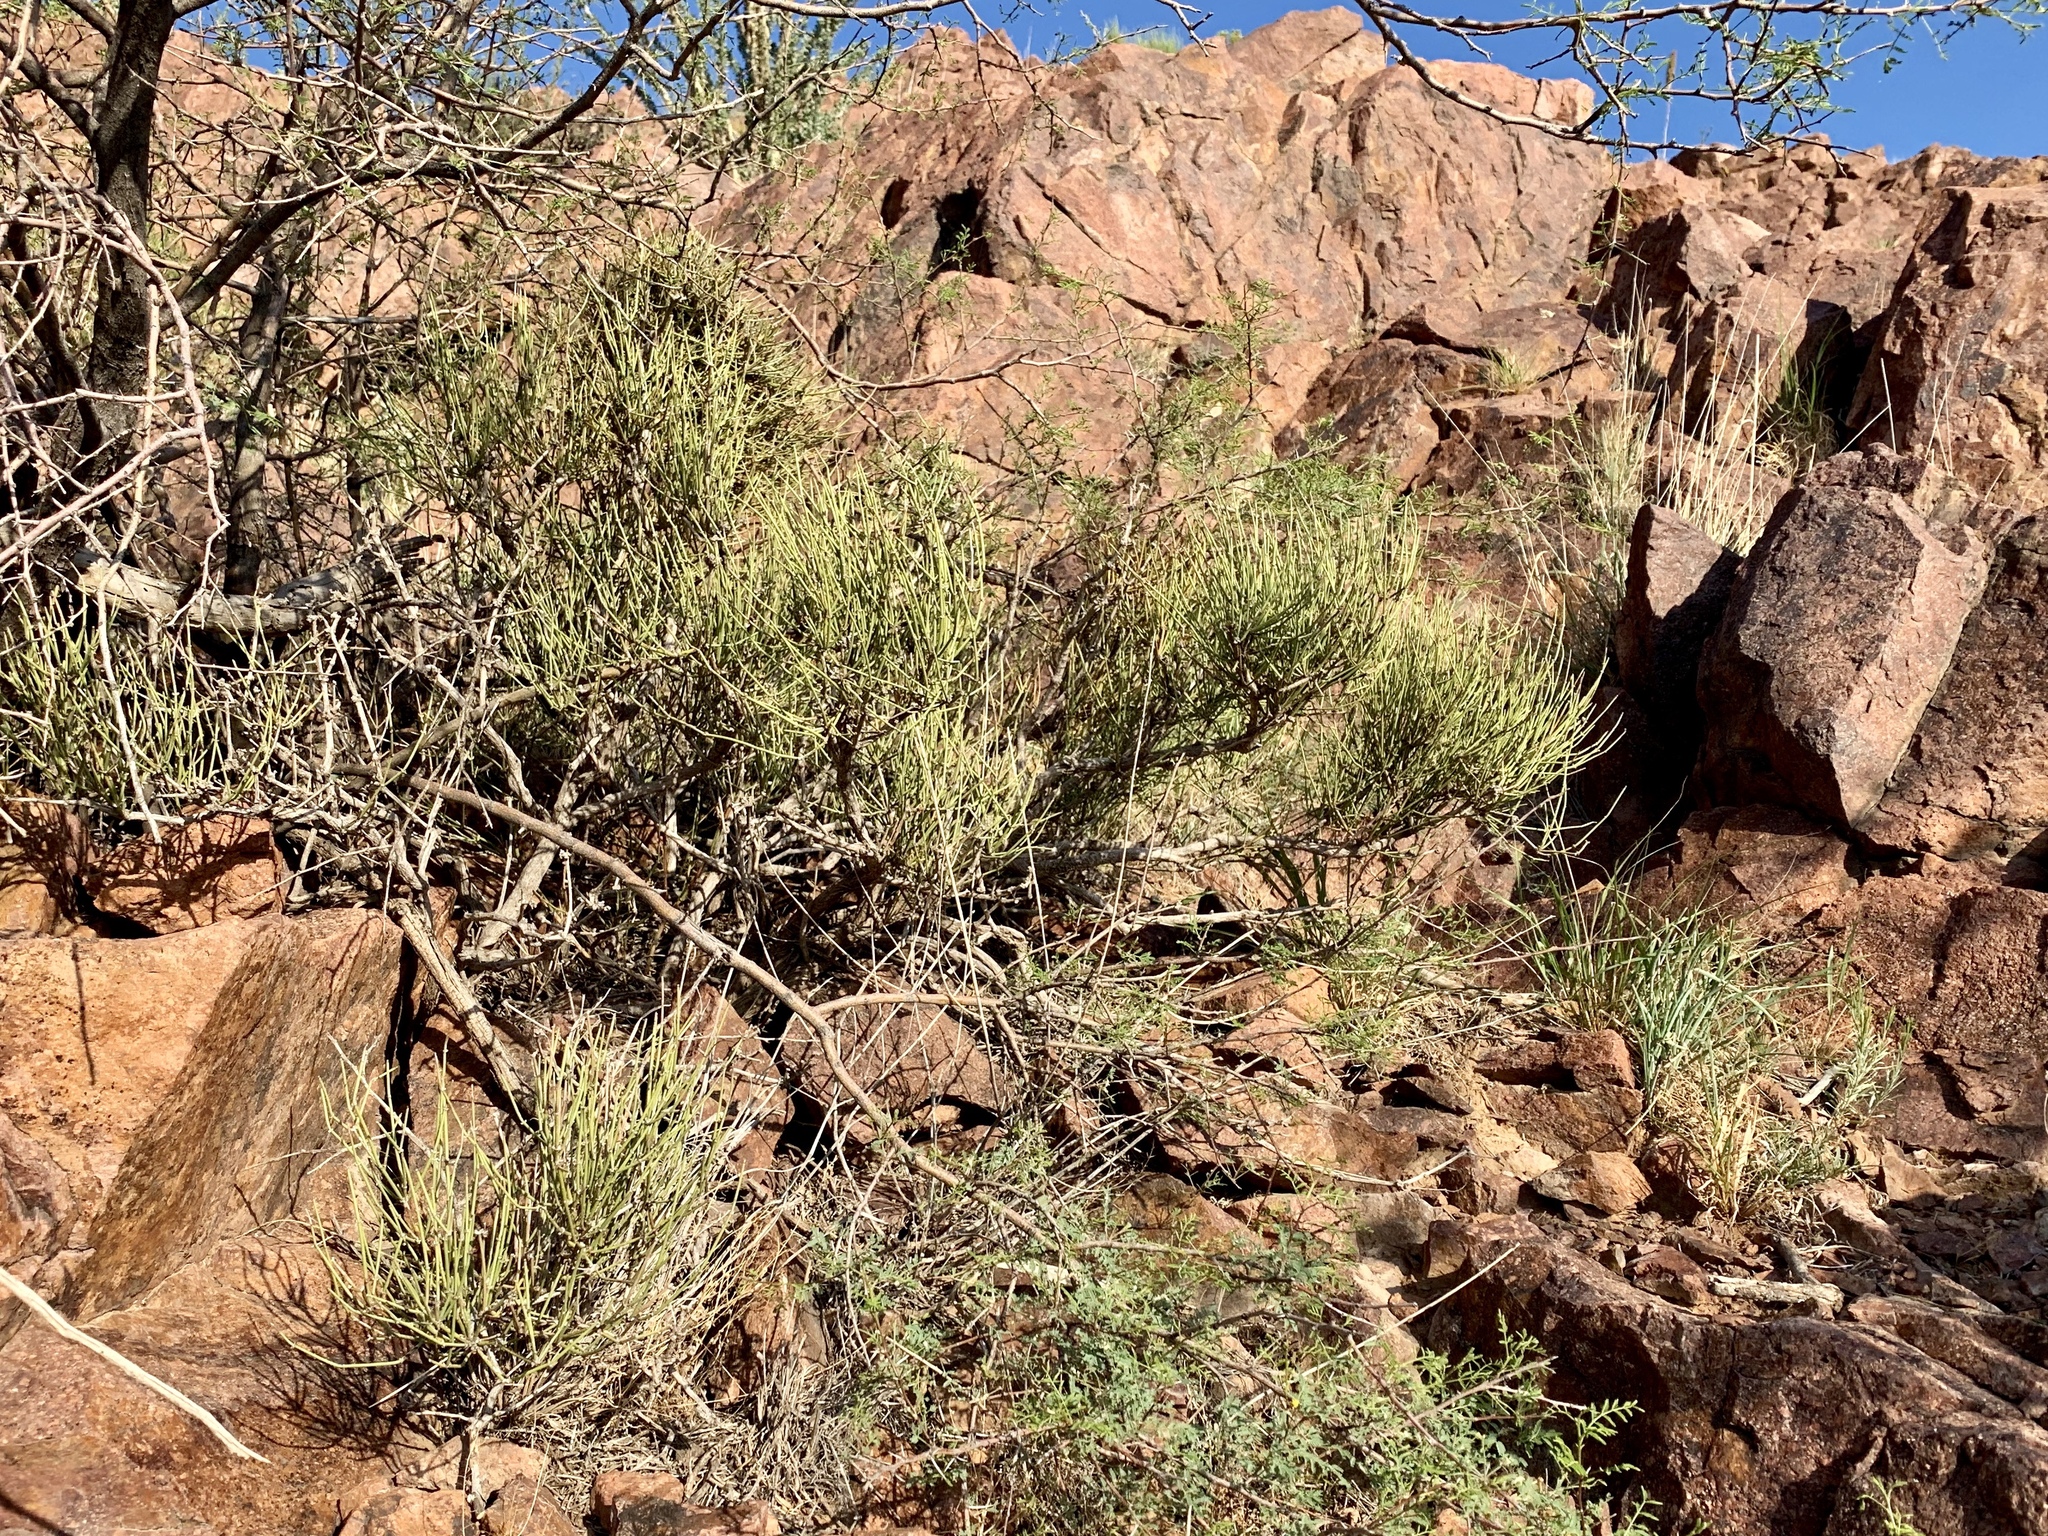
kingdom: Plantae
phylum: Tracheophyta
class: Gnetopsida
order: Ephedrales
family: Ephedraceae
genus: Ephedra
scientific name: Ephedra viridis
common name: Green ephedra
